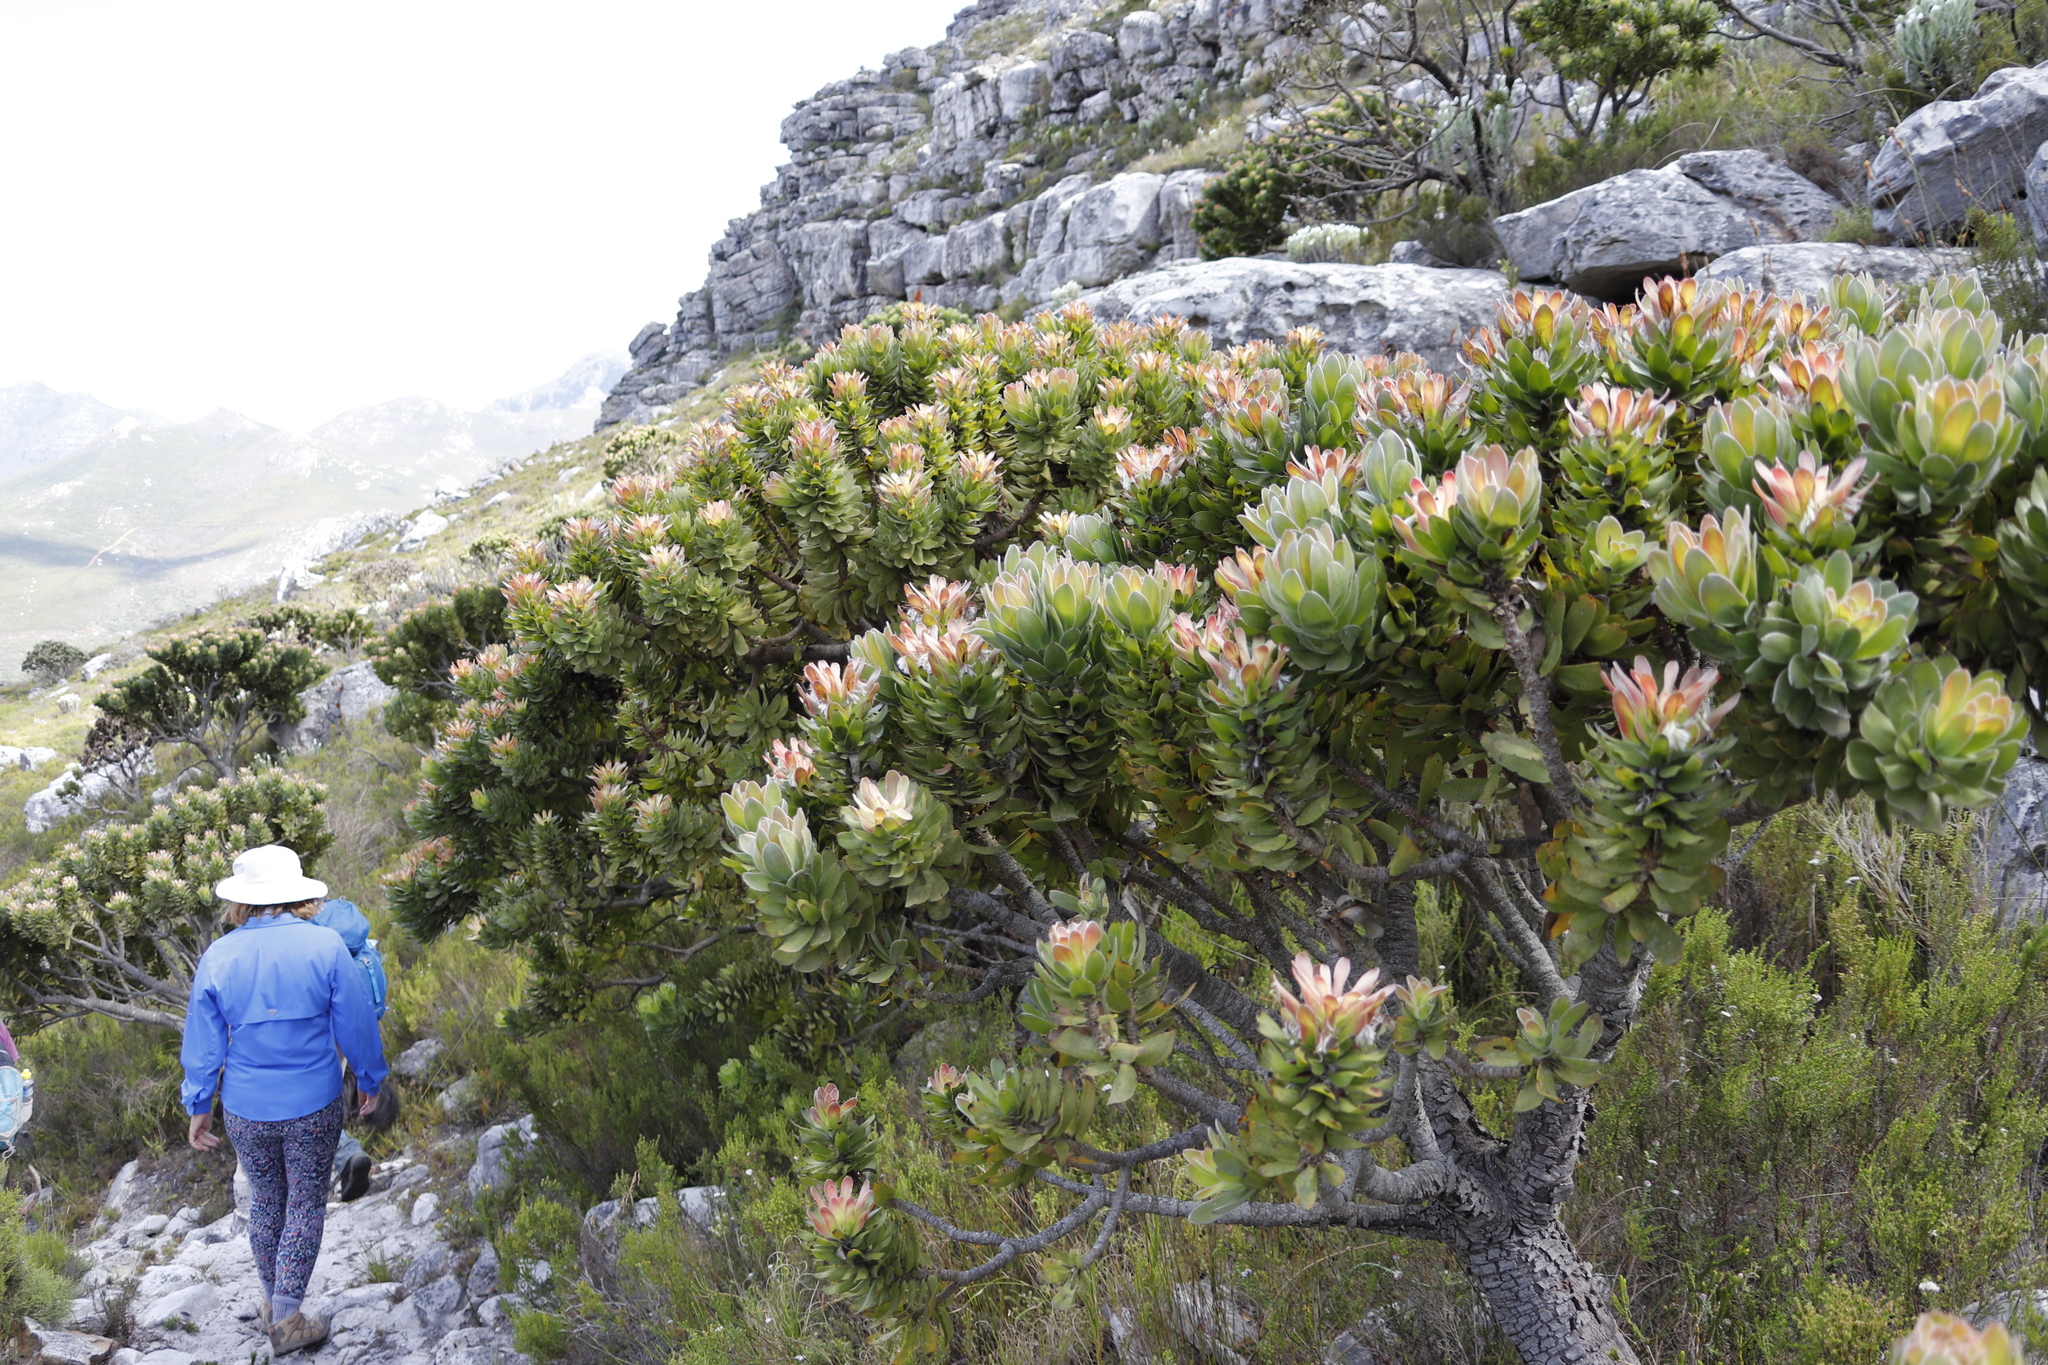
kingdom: Plantae
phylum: Tracheophyta
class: Magnoliopsida
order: Proteales
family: Proteaceae
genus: Mimetes
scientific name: Mimetes fimbriifolius
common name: Fringed bottlebrush
